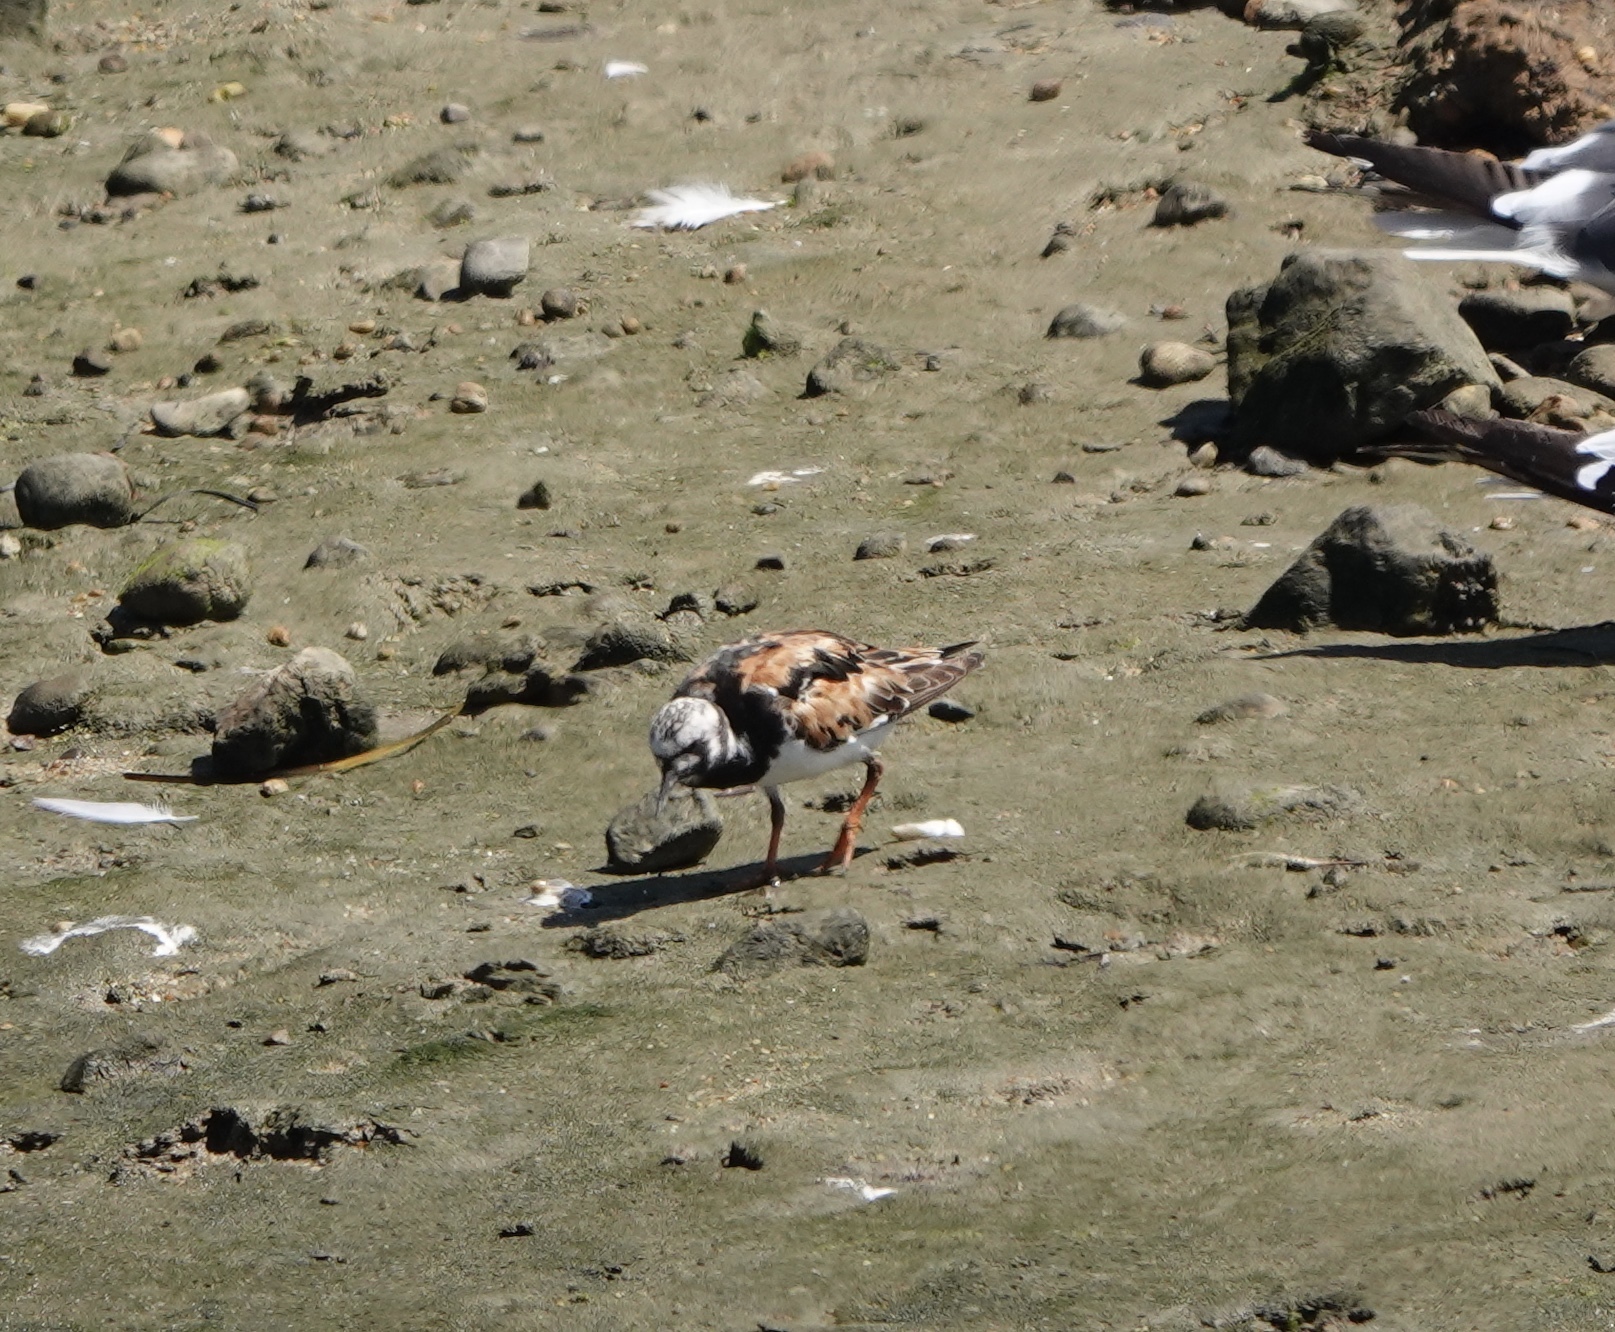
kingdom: Animalia
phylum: Chordata
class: Aves
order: Charadriiformes
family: Scolopacidae
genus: Arenaria
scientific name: Arenaria interpres
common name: Ruddy turnstone
